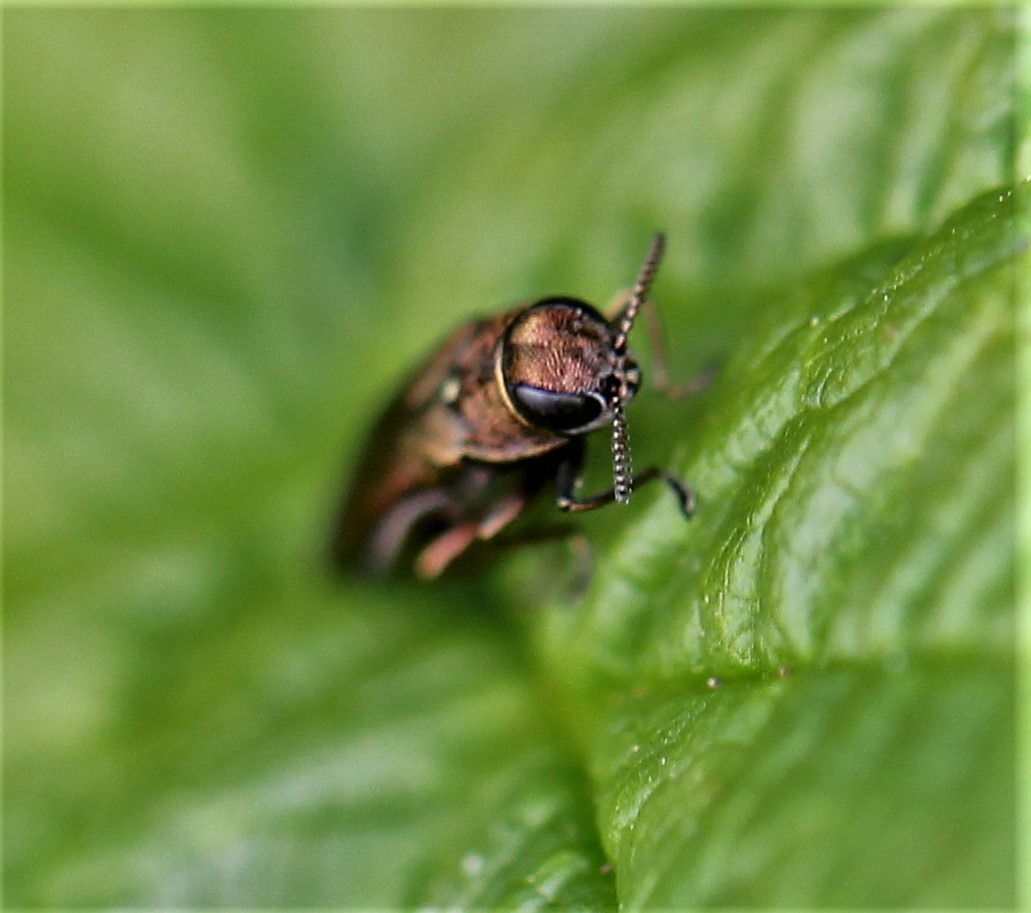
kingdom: Animalia
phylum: Arthropoda
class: Insecta
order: Coleoptera
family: Buprestidae
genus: Agrilus
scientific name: Agrilus cuprescens
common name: Rose stem girdler
